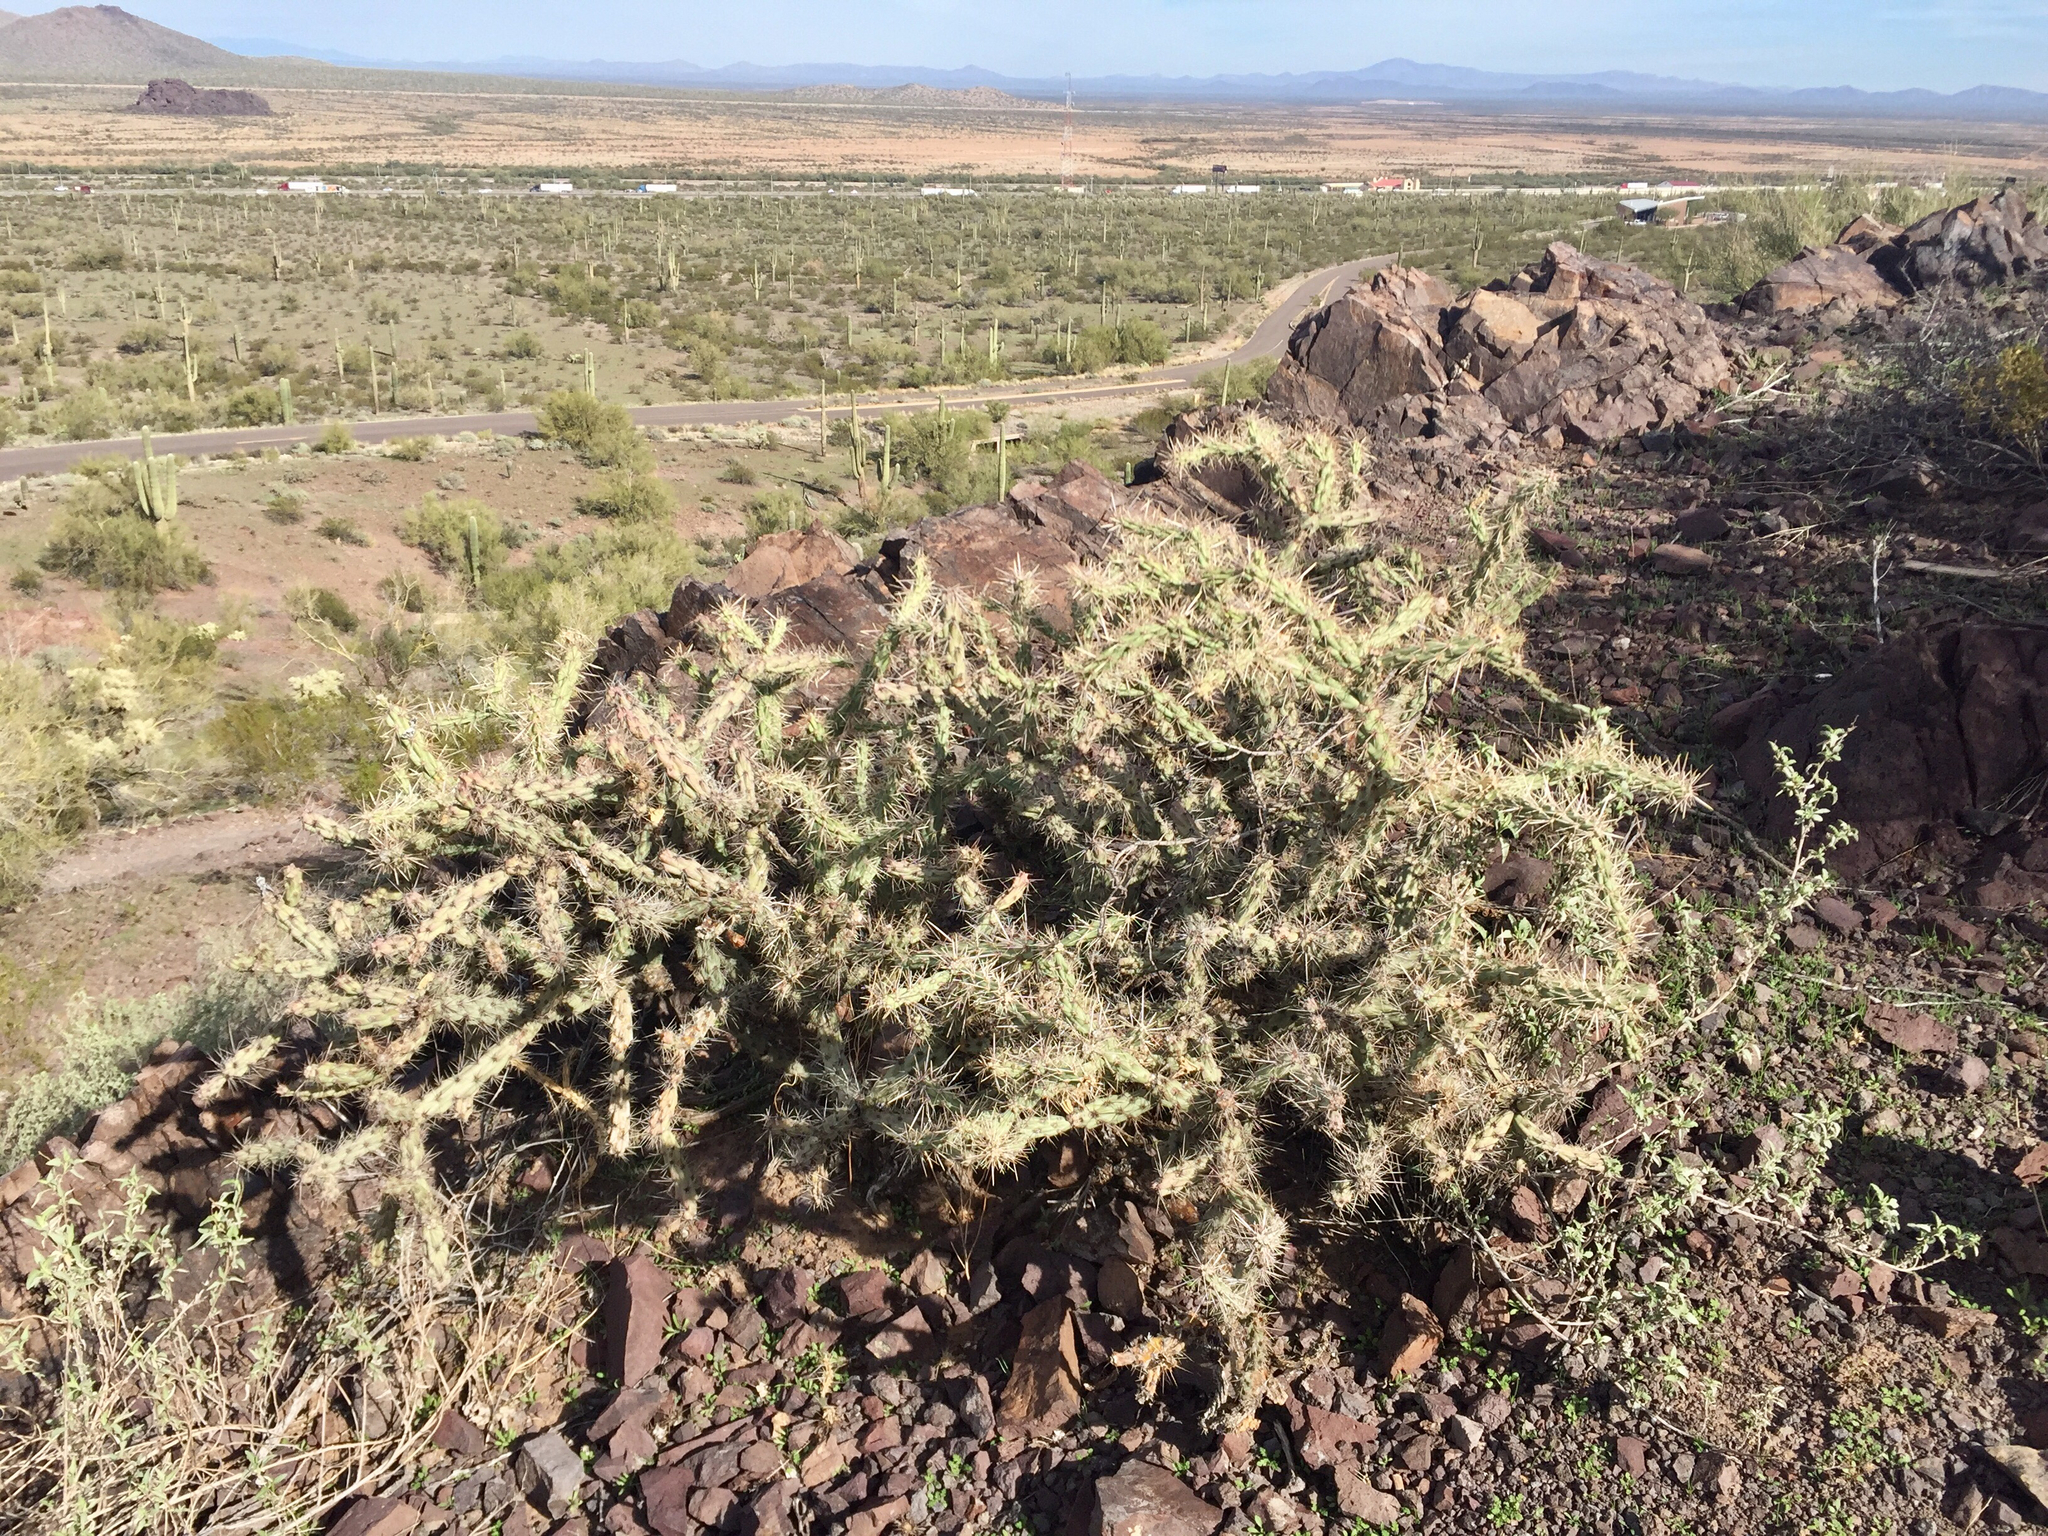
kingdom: Plantae
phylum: Tracheophyta
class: Magnoliopsida
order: Caryophyllales
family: Cactaceae
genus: Cylindropuntia
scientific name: Cylindropuntia acanthocarpa
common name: Buckhorn cholla
